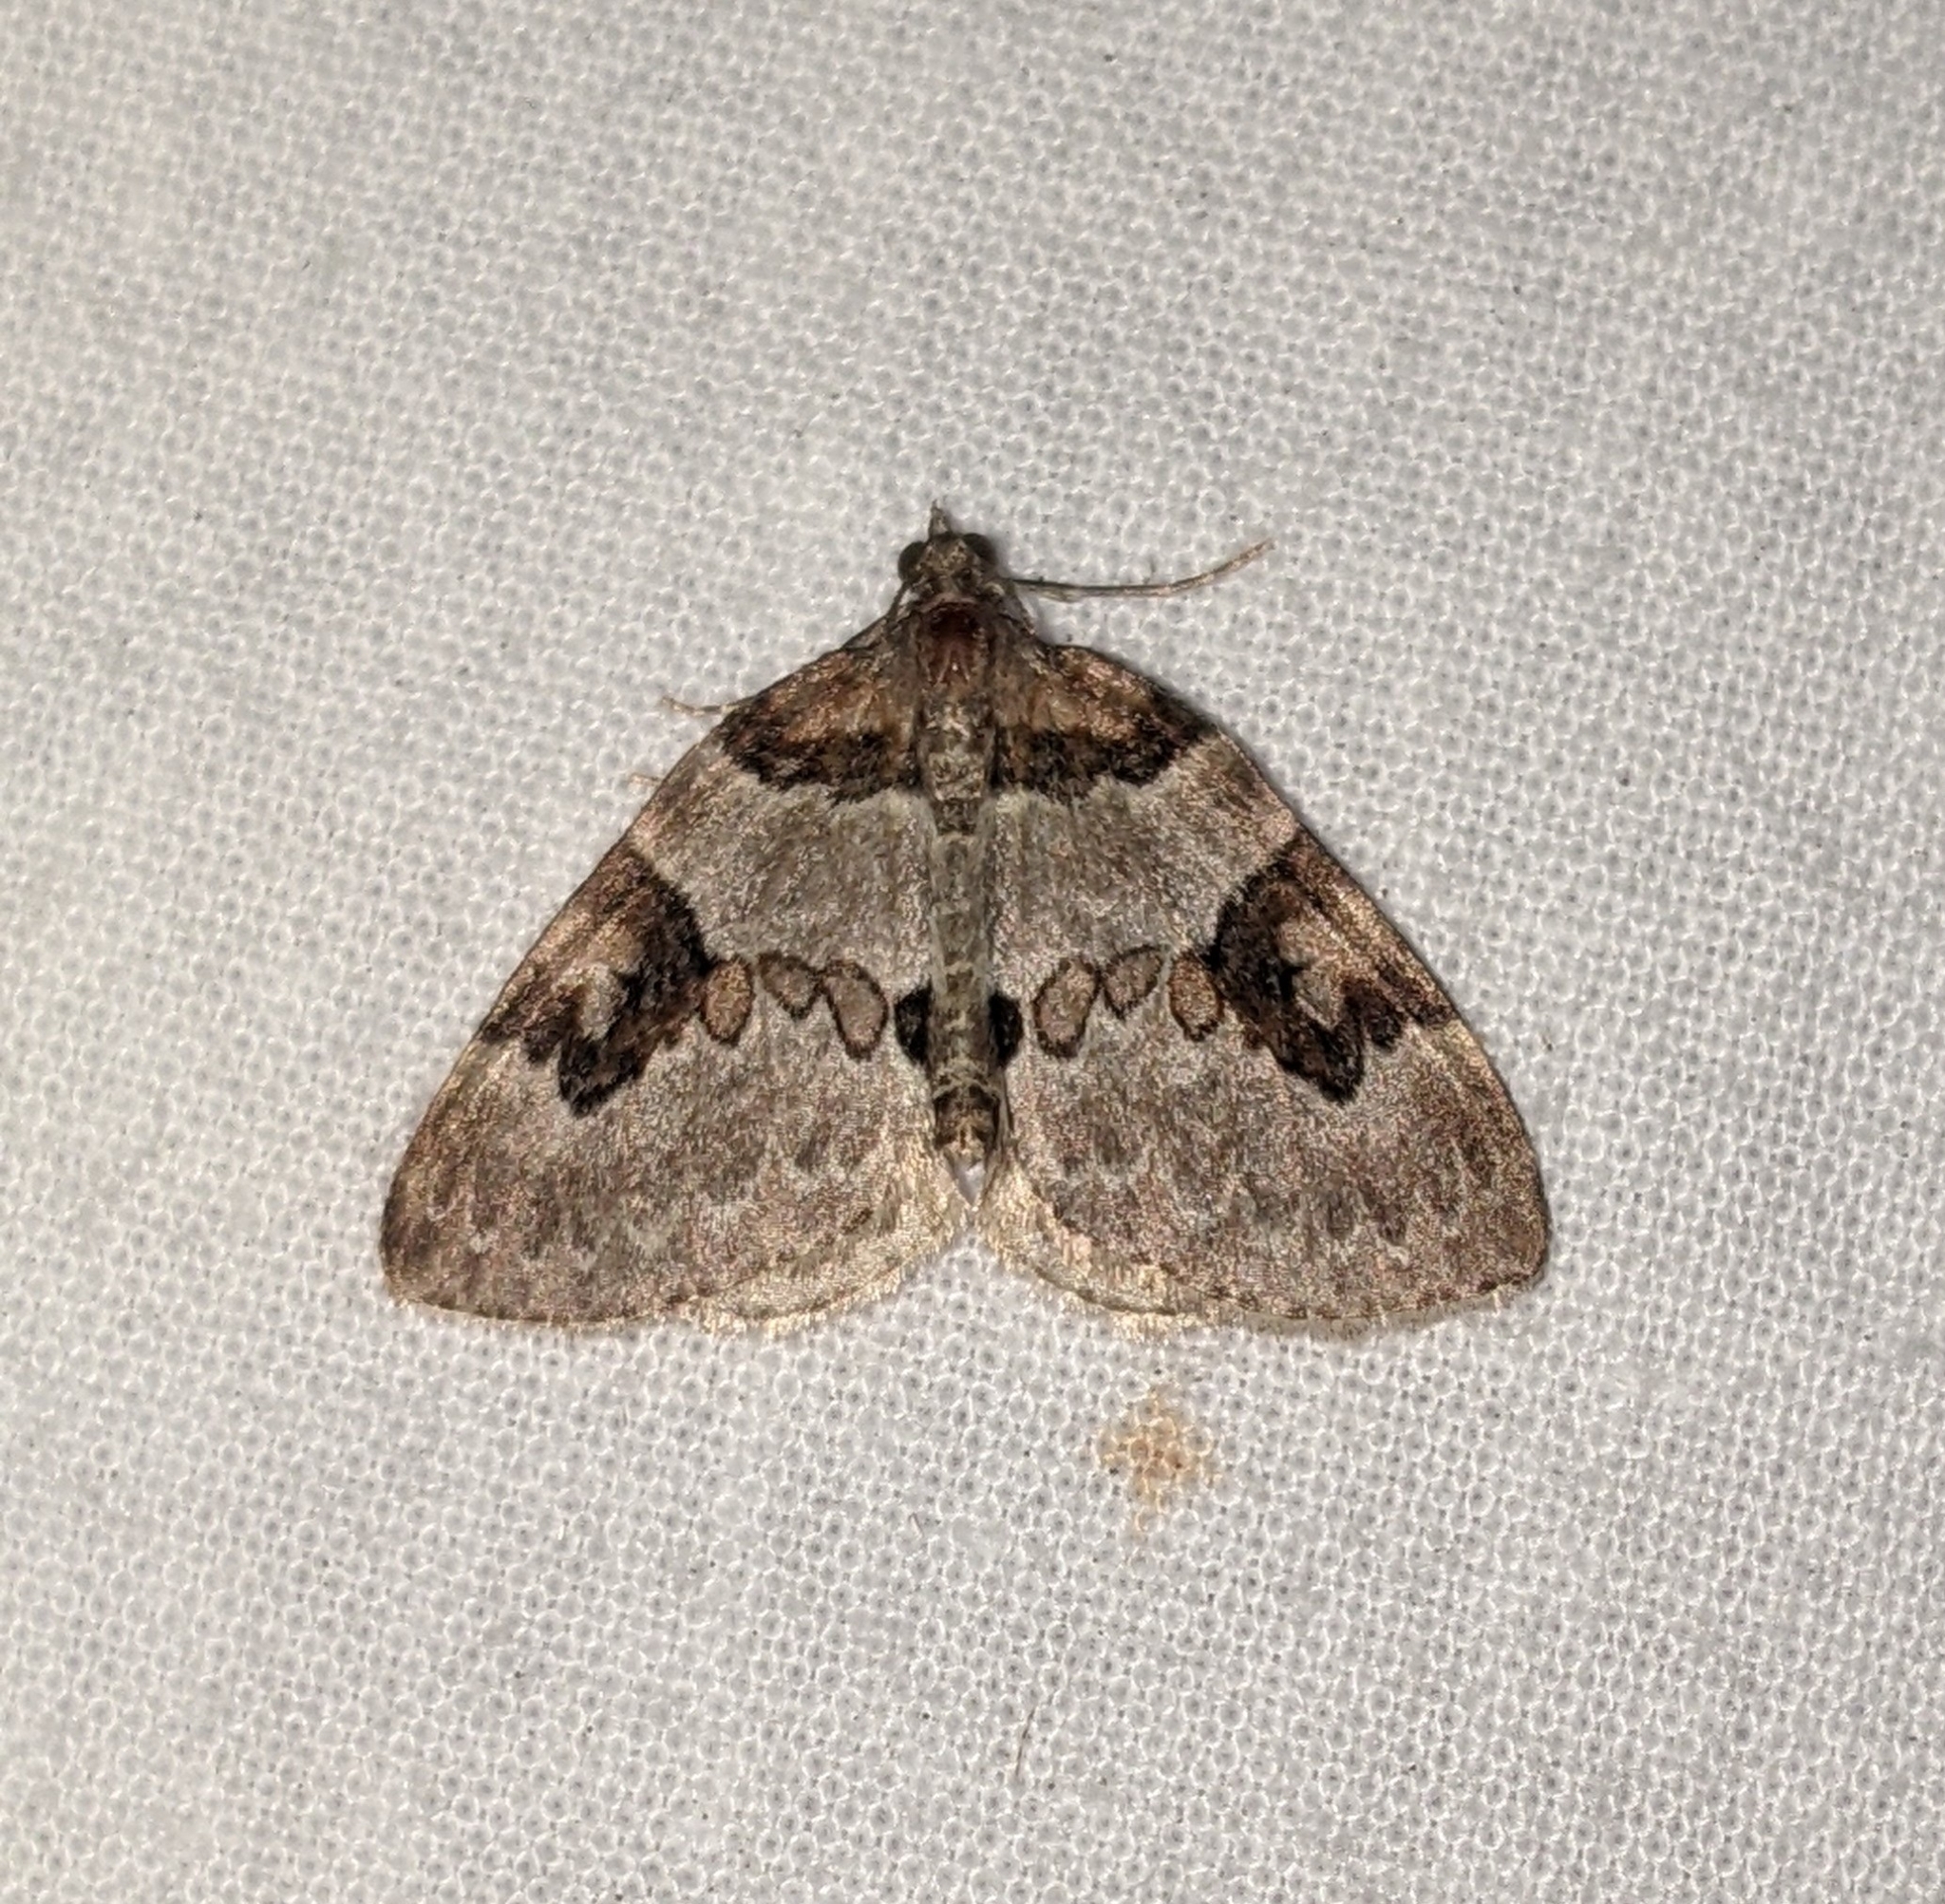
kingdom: Animalia
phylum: Arthropoda
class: Insecta
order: Lepidoptera
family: Geometridae
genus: Plemyria
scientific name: Plemyria georgii
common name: George's carpet moth
